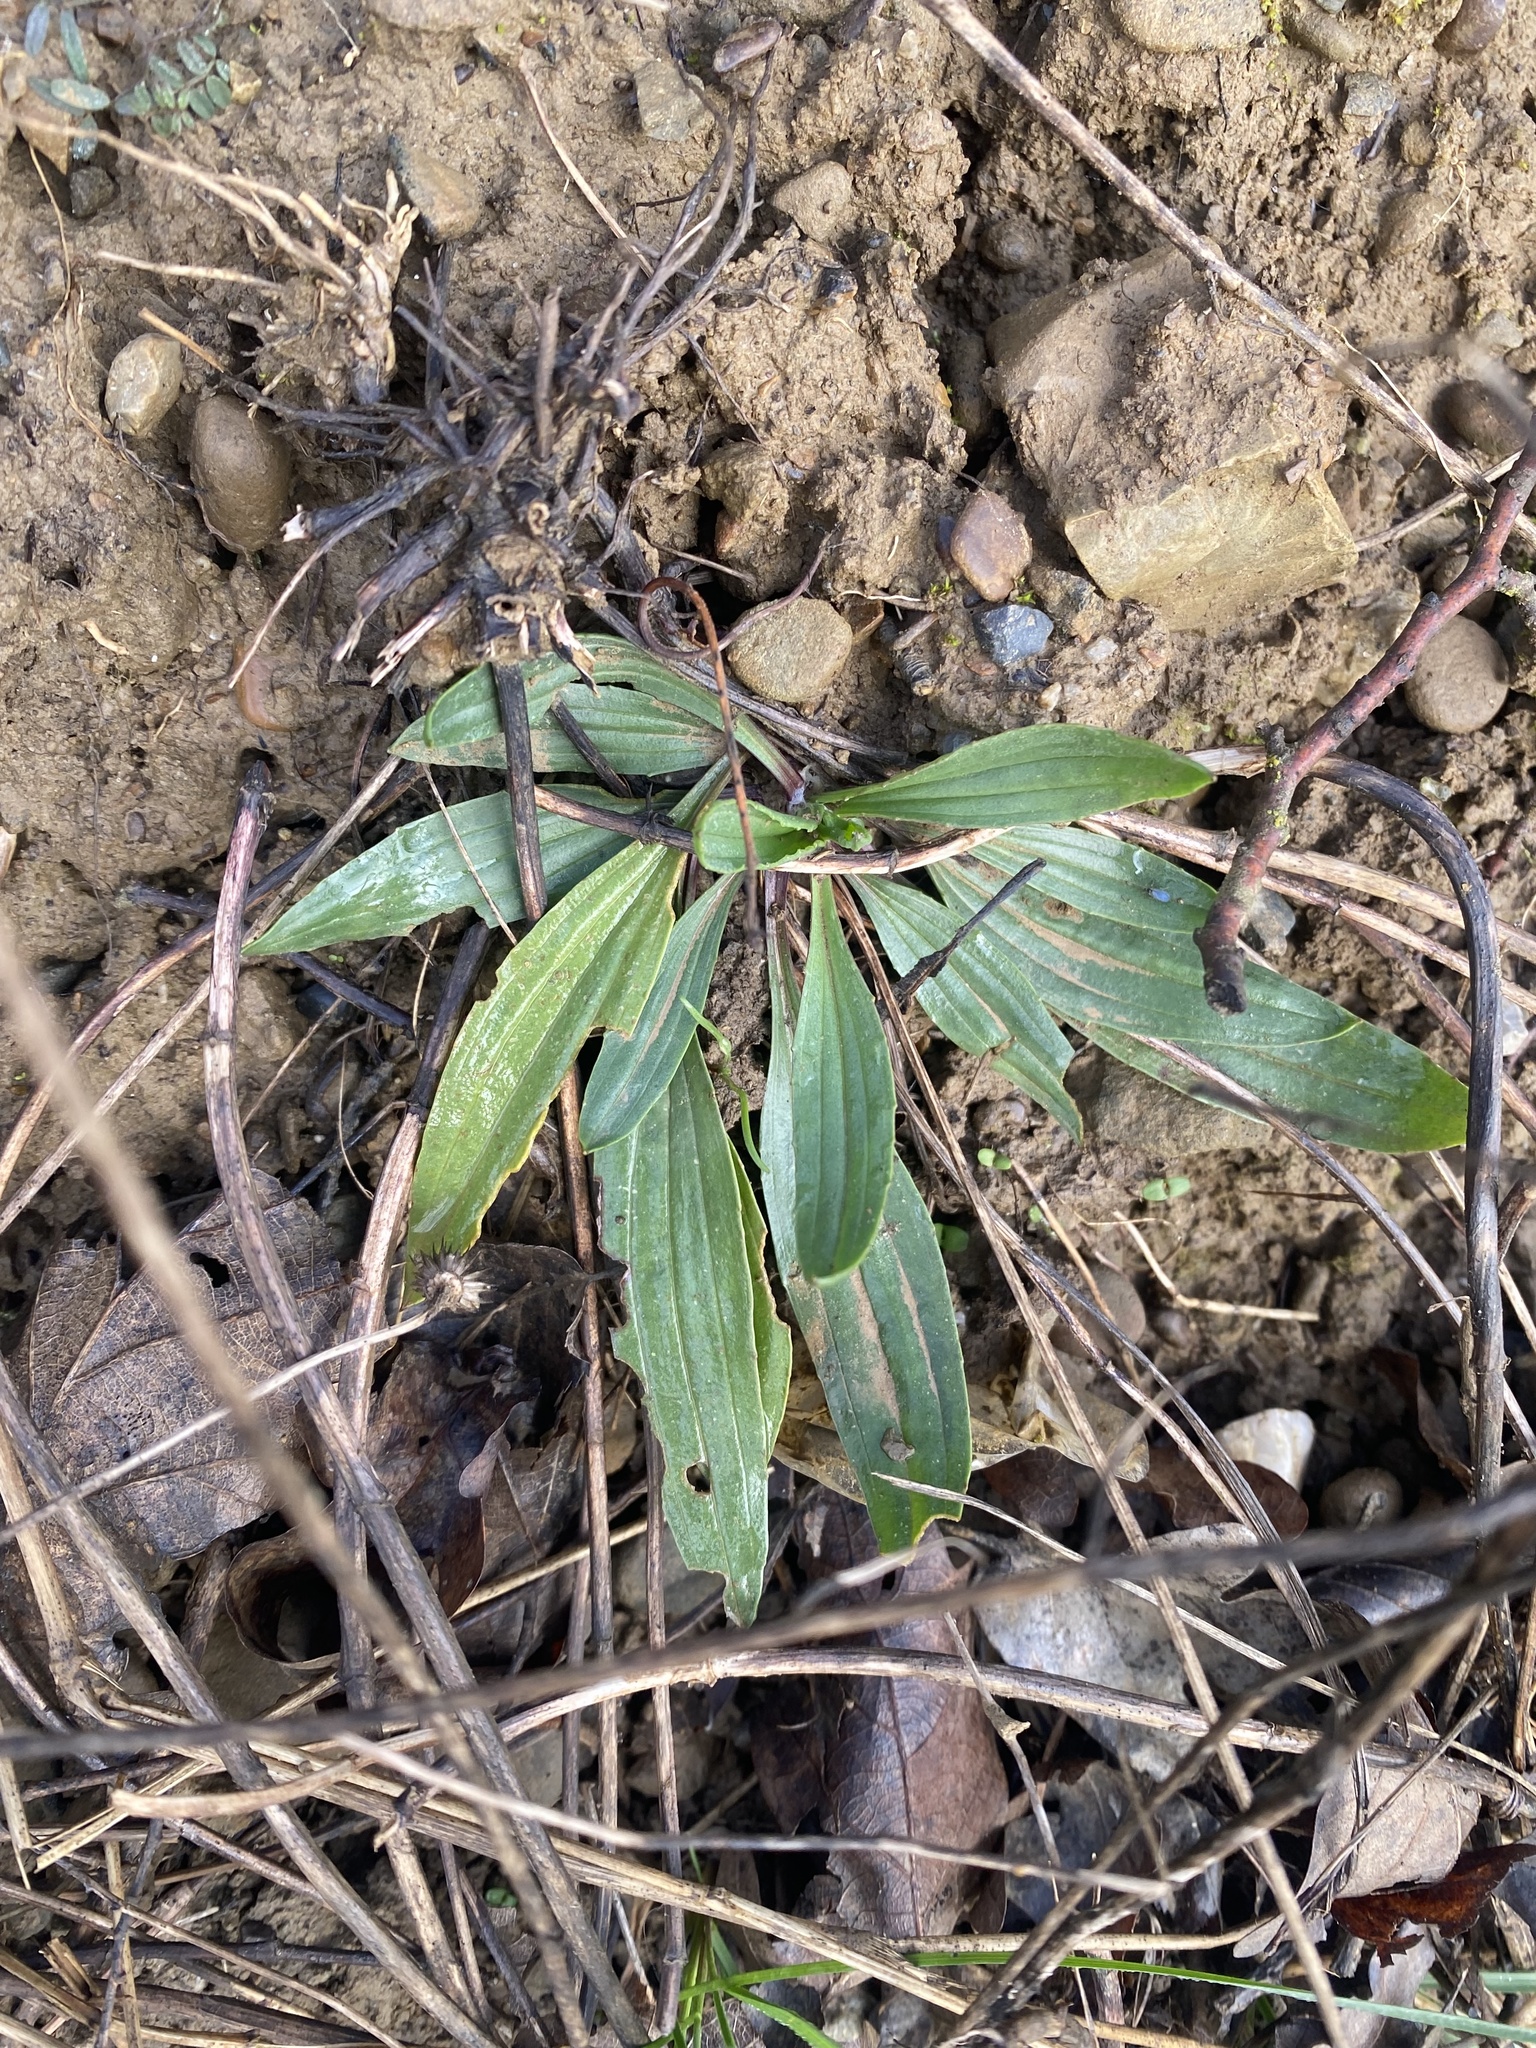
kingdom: Plantae
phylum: Tracheophyta
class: Magnoliopsida
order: Lamiales
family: Plantaginaceae
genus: Plantago
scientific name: Plantago lanceolata
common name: Ribwort plantain
